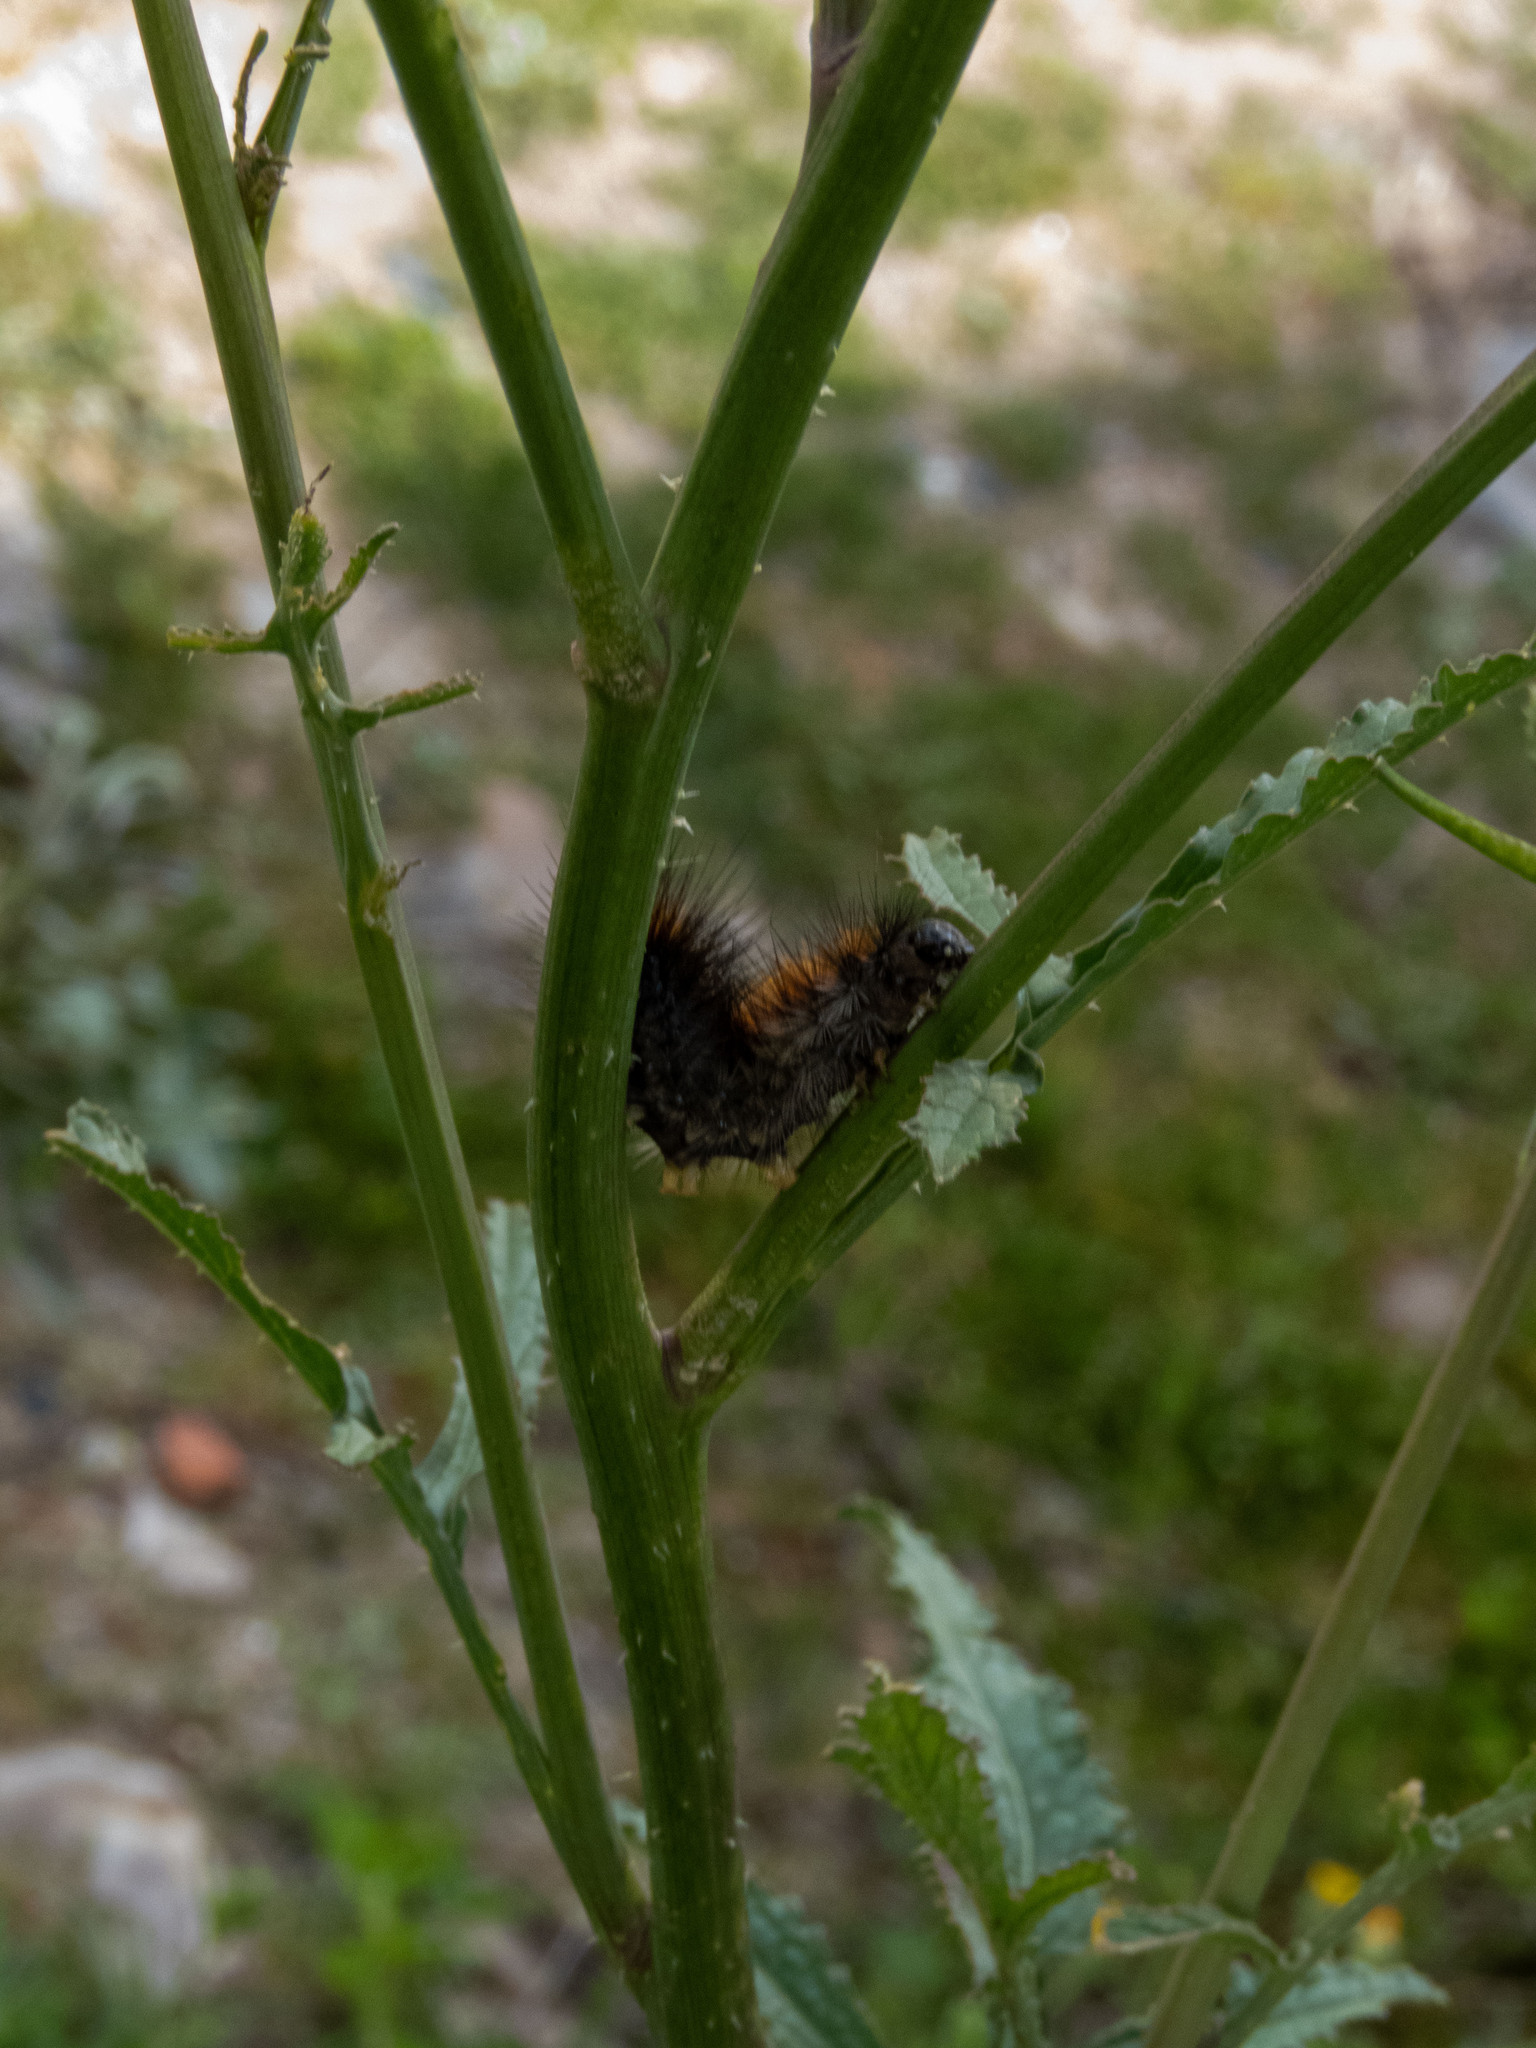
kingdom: Animalia
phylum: Arthropoda
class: Insecta
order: Lepidoptera
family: Erebidae
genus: Ocnogyna
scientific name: Ocnogyna boeticum
